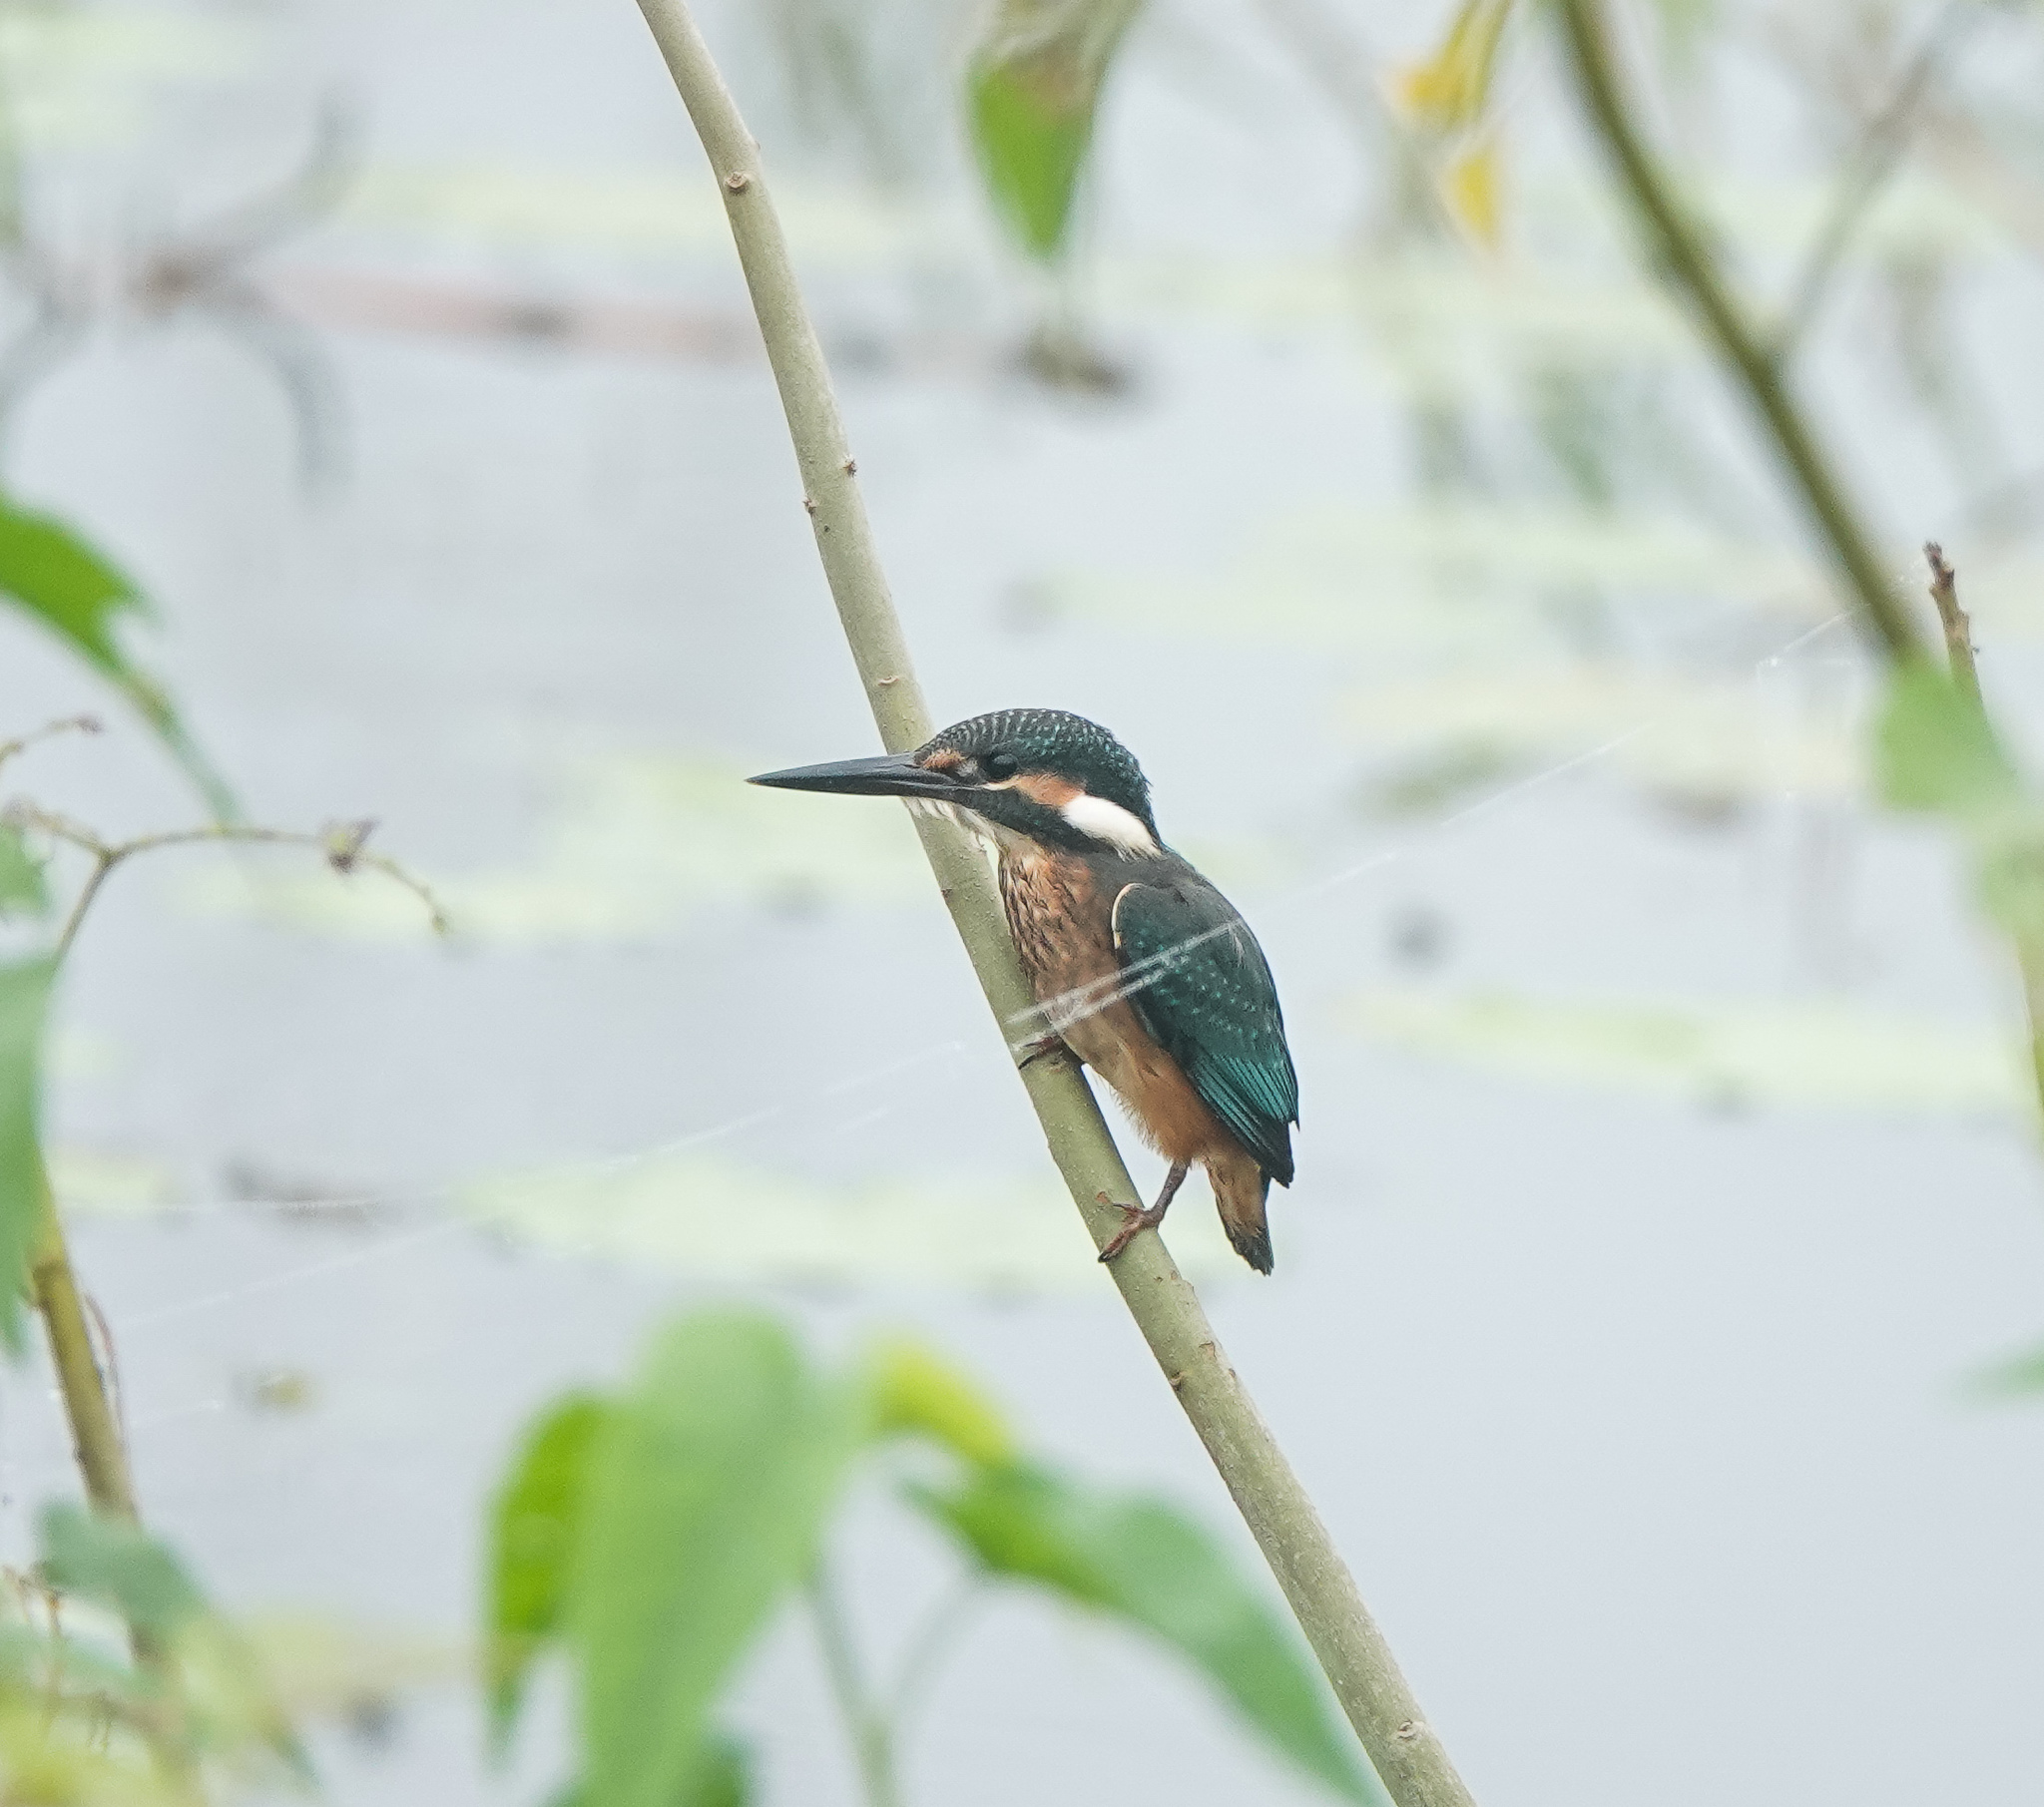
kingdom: Animalia
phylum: Chordata
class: Aves
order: Coraciiformes
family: Alcedinidae
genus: Alcedo
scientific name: Alcedo atthis
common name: Common kingfisher
